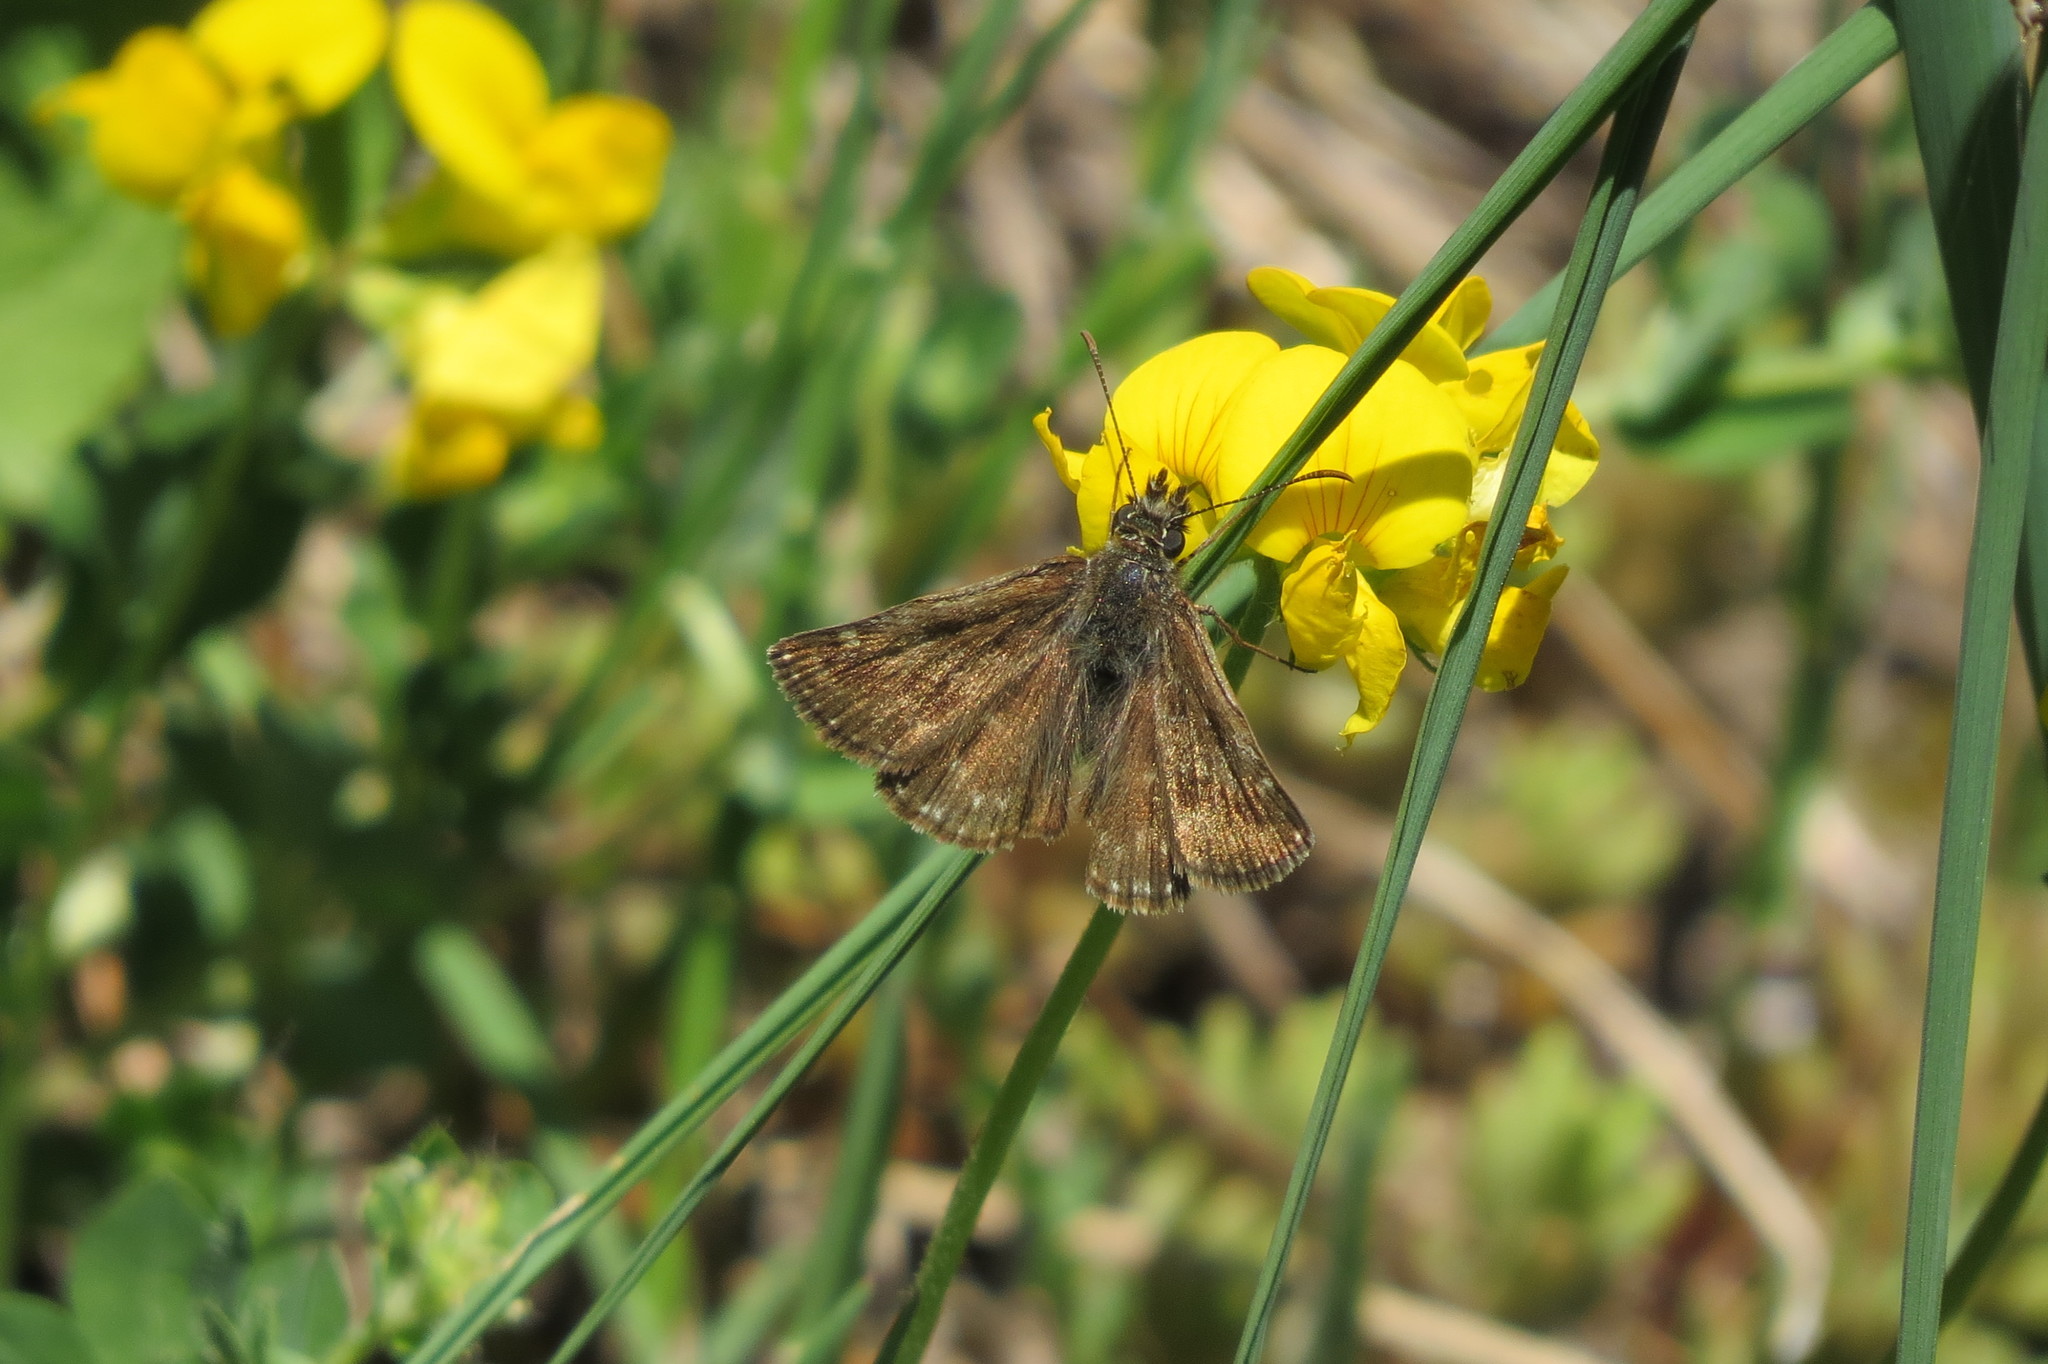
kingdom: Animalia
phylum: Arthropoda
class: Insecta
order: Lepidoptera
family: Hesperiidae
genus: Erynnis
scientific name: Erynnis tages
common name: Dingy skipper
